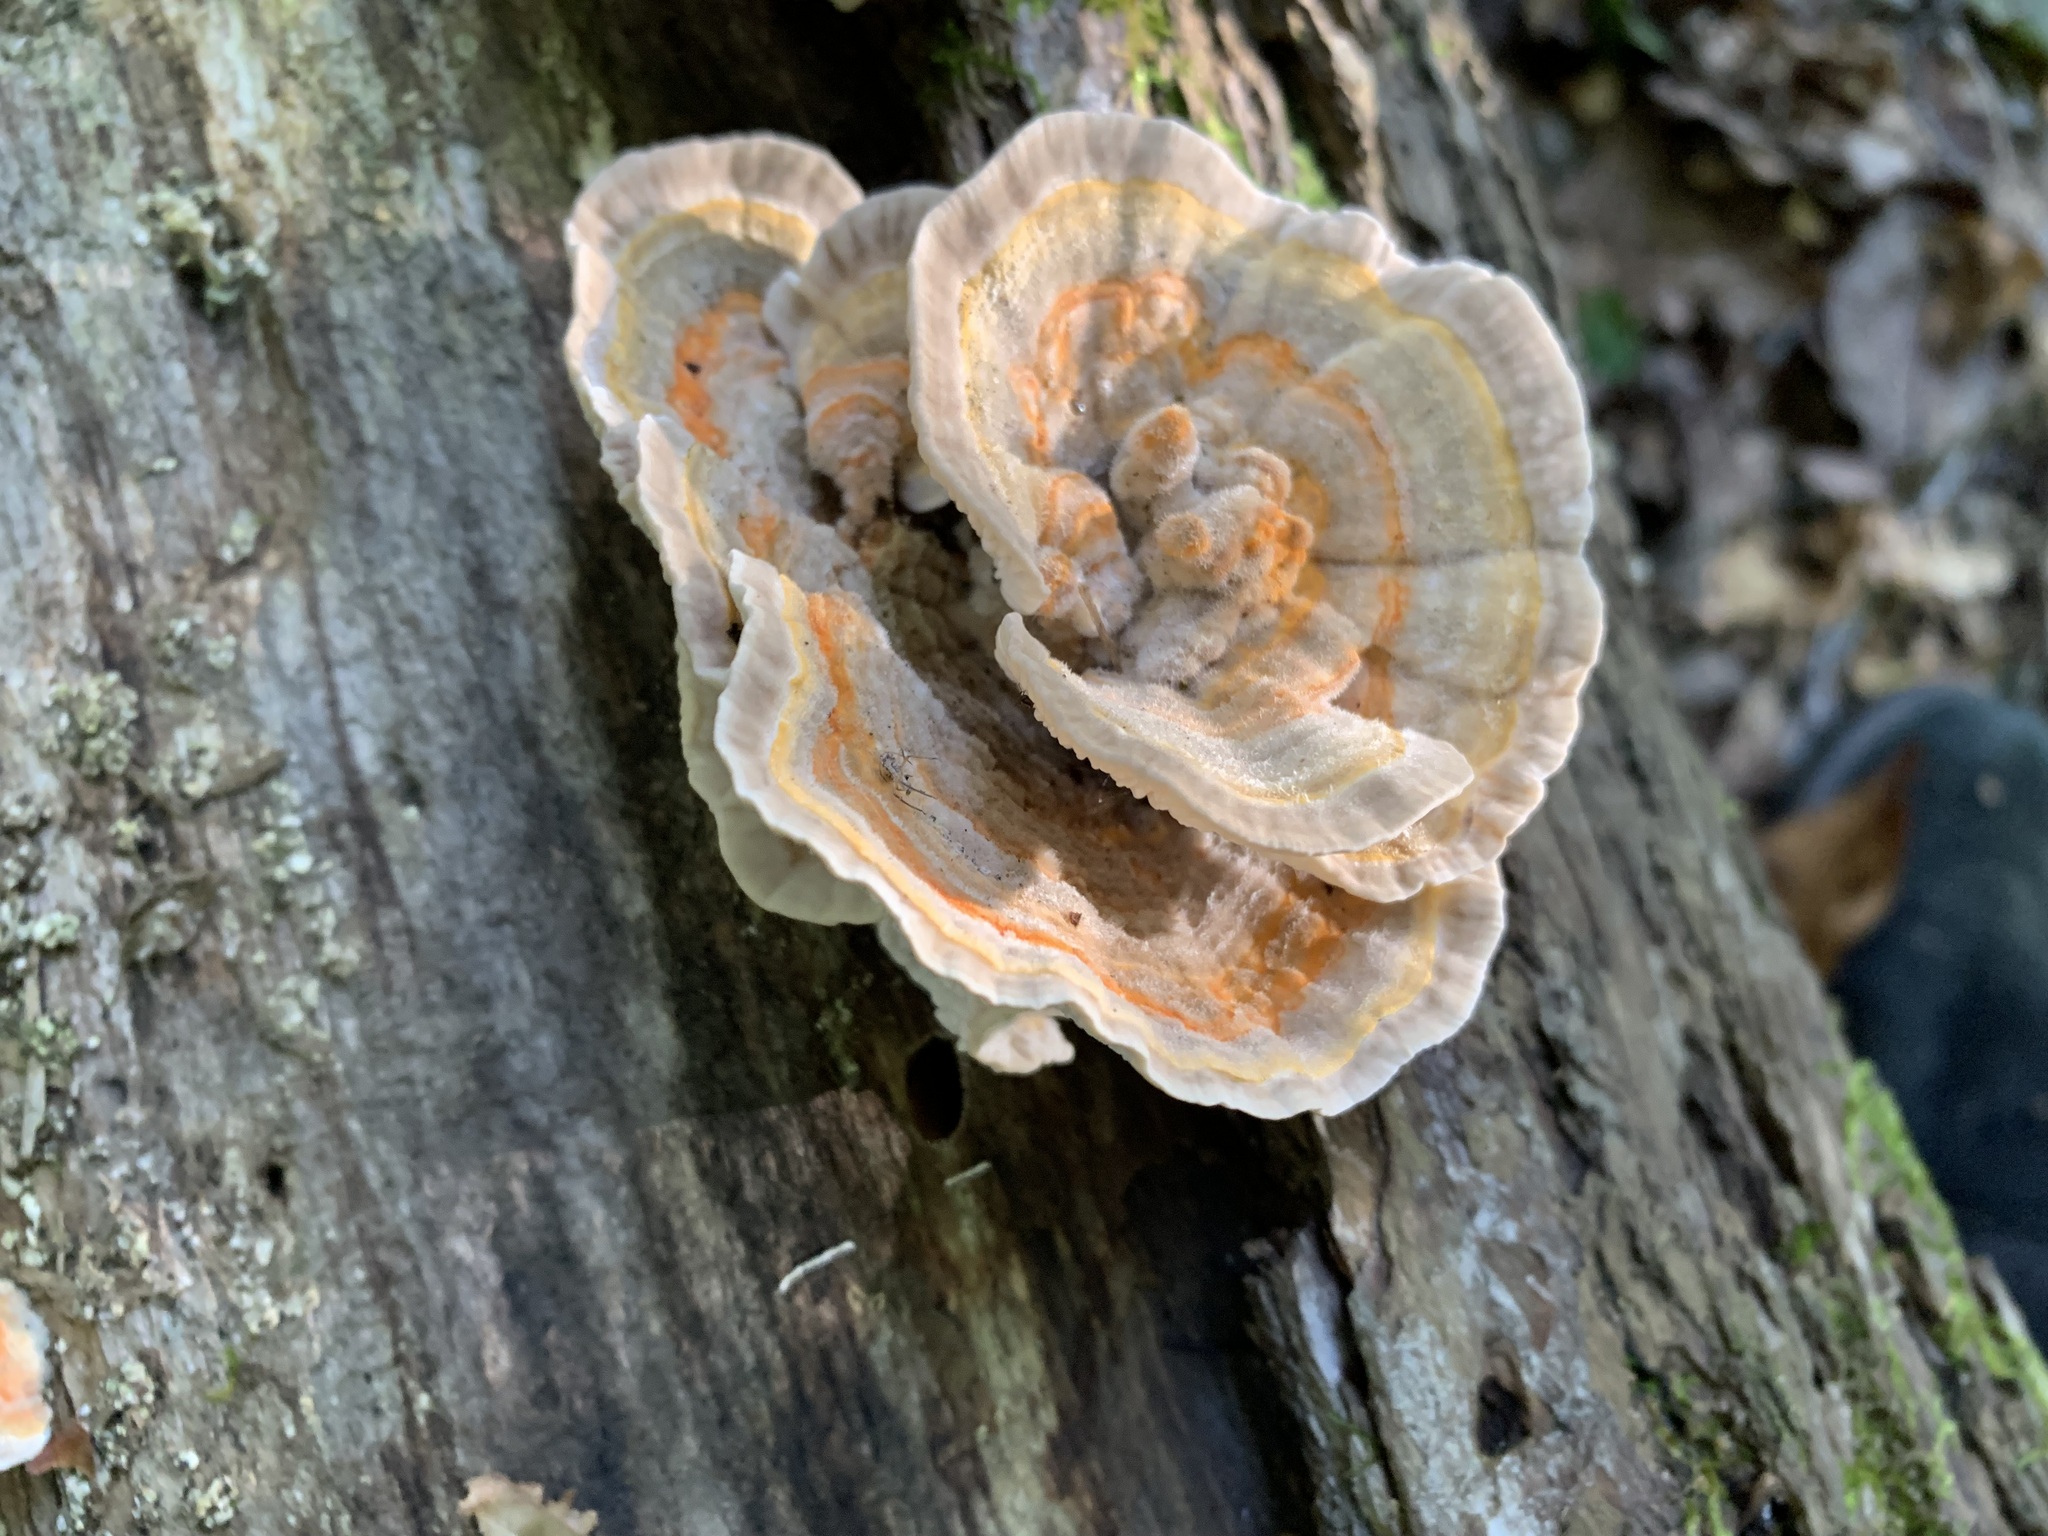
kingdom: Fungi
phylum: Basidiomycota
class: Agaricomycetes
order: Polyporales
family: Polyporaceae
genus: Lenzites
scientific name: Lenzites betulinus
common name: Birch mazegill
